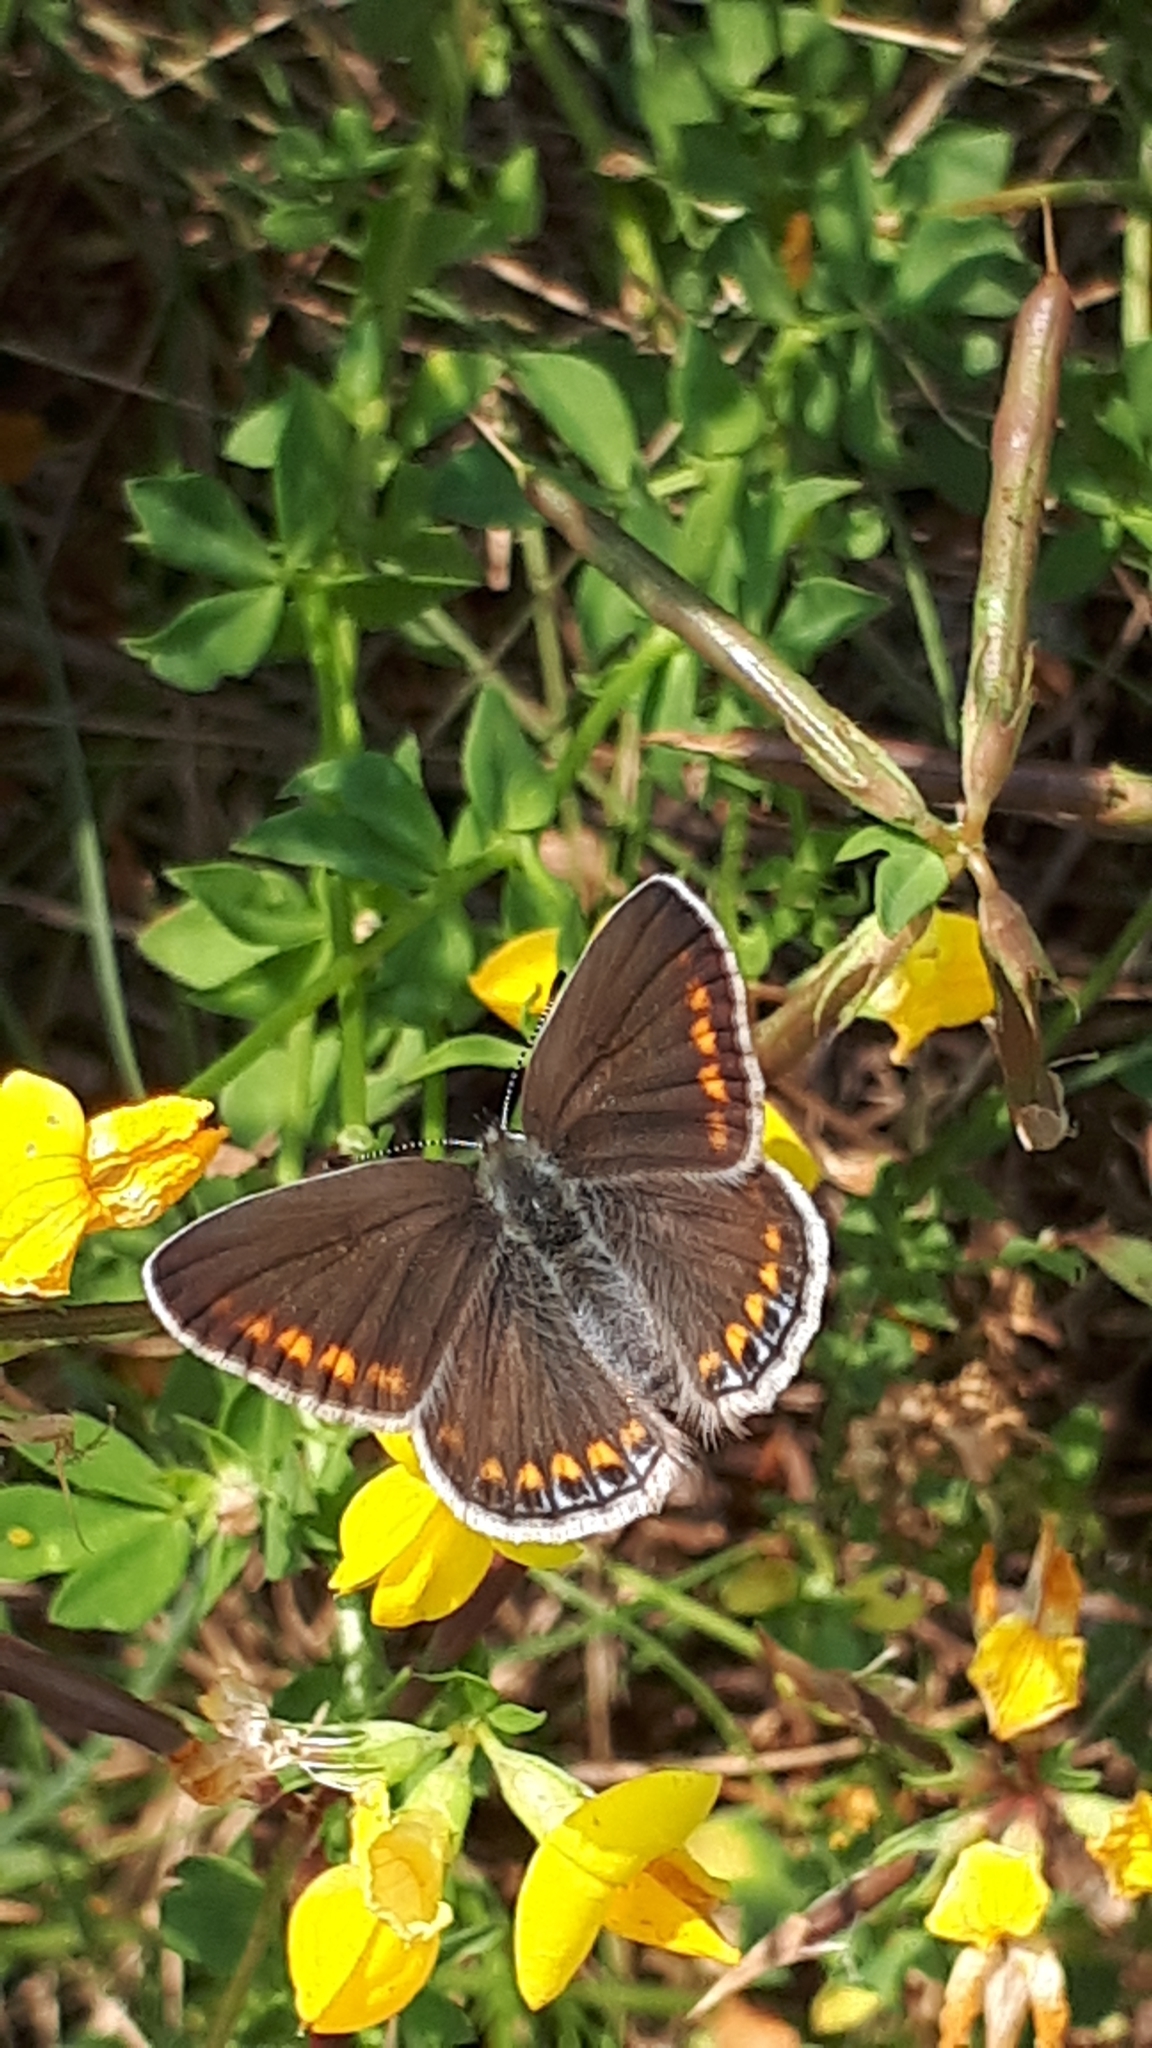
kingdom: Animalia
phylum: Arthropoda
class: Insecta
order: Lepidoptera
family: Lycaenidae
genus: Polyommatus
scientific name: Polyommatus icarus
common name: Common blue
